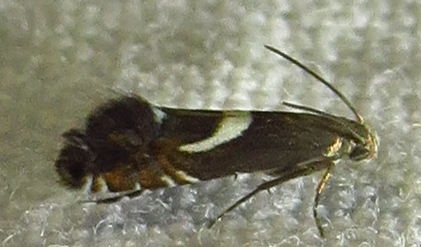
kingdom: Animalia
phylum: Arthropoda
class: Insecta
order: Lepidoptera
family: Glyphipterigidae
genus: Glyphipterix
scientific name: Glyphipterix Diploschizia impigritella
